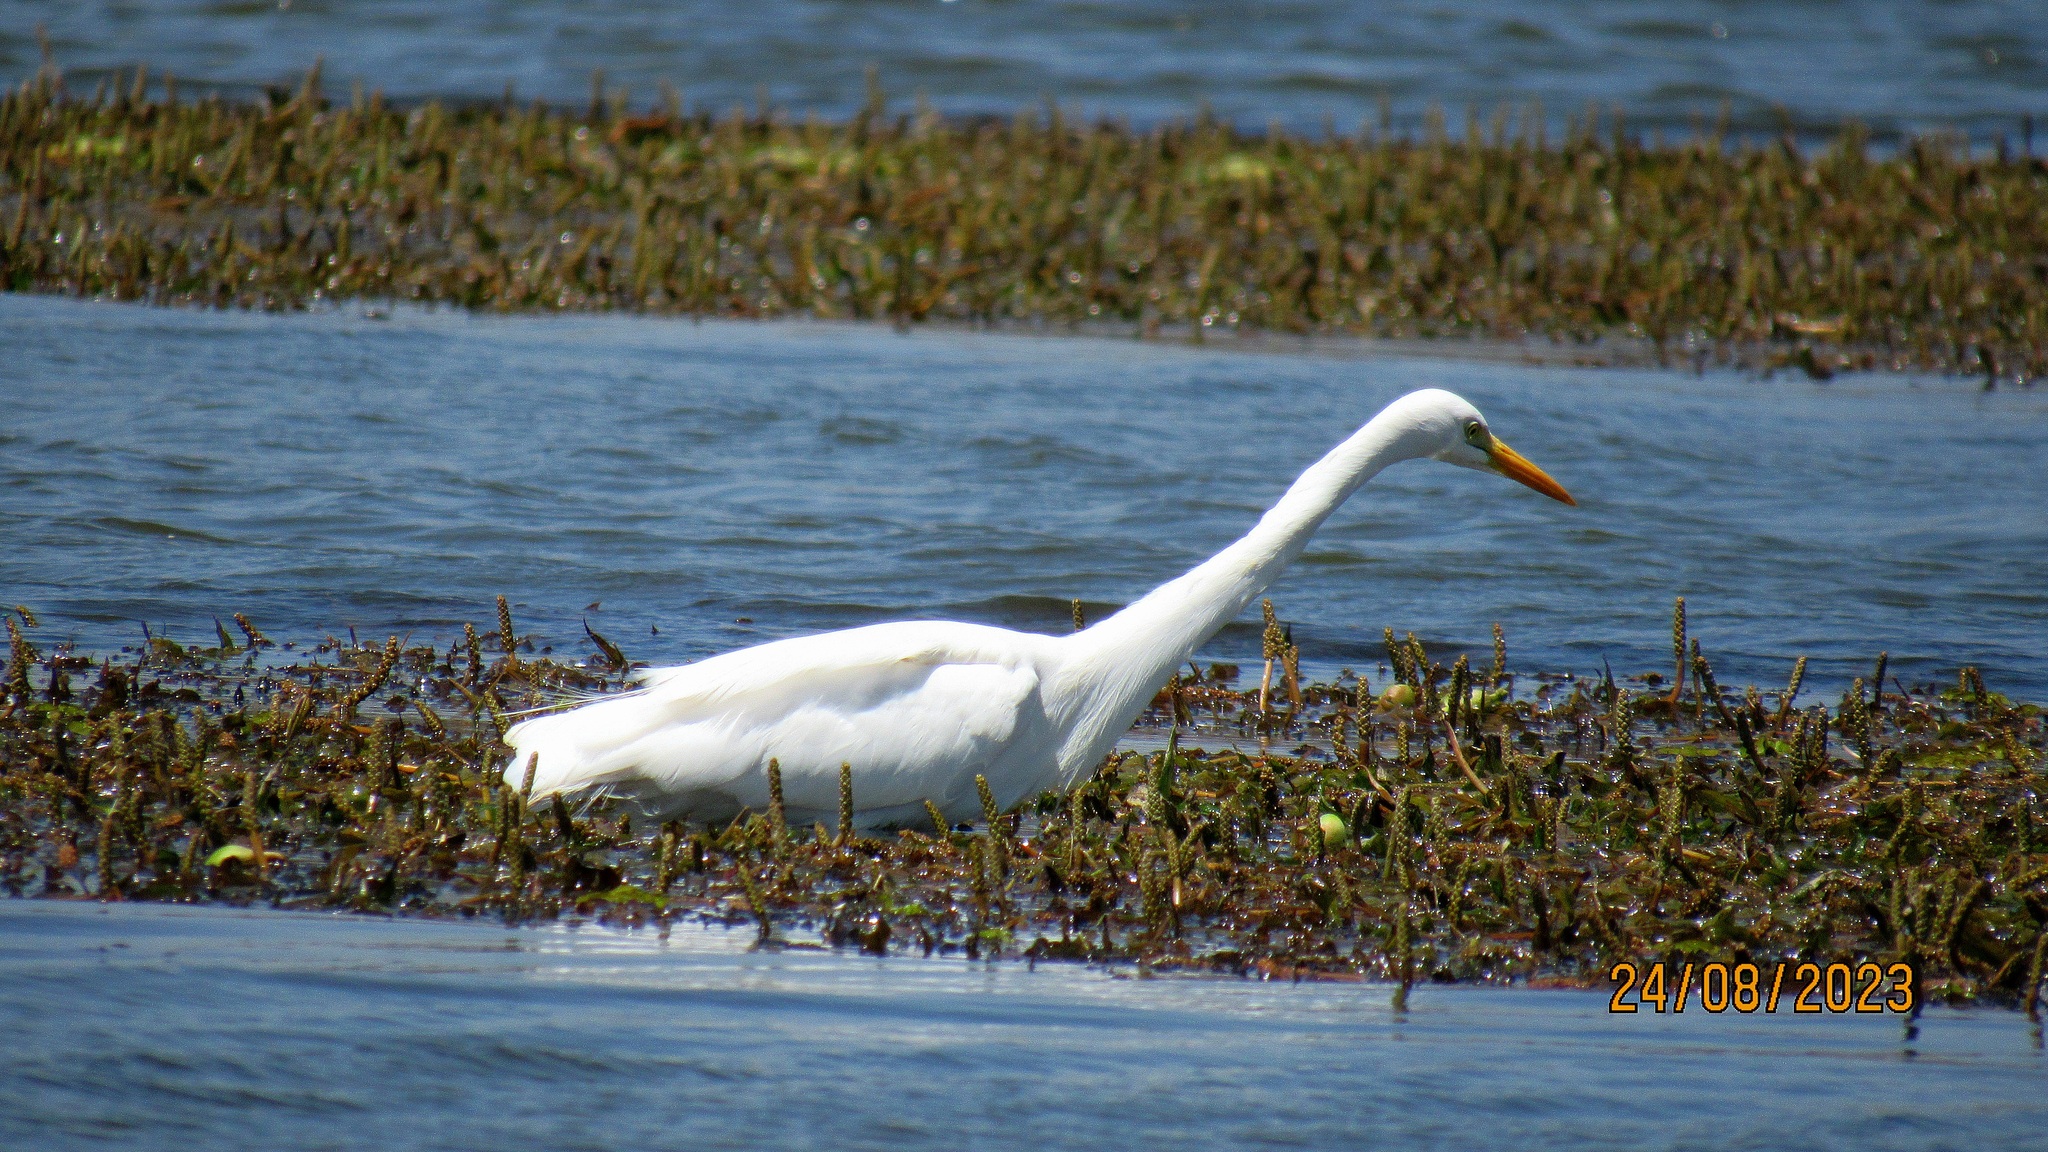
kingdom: Animalia
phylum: Chordata
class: Aves
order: Pelecaniformes
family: Ardeidae
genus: Egretta
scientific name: Egretta intermedia
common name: Intermediate egret
